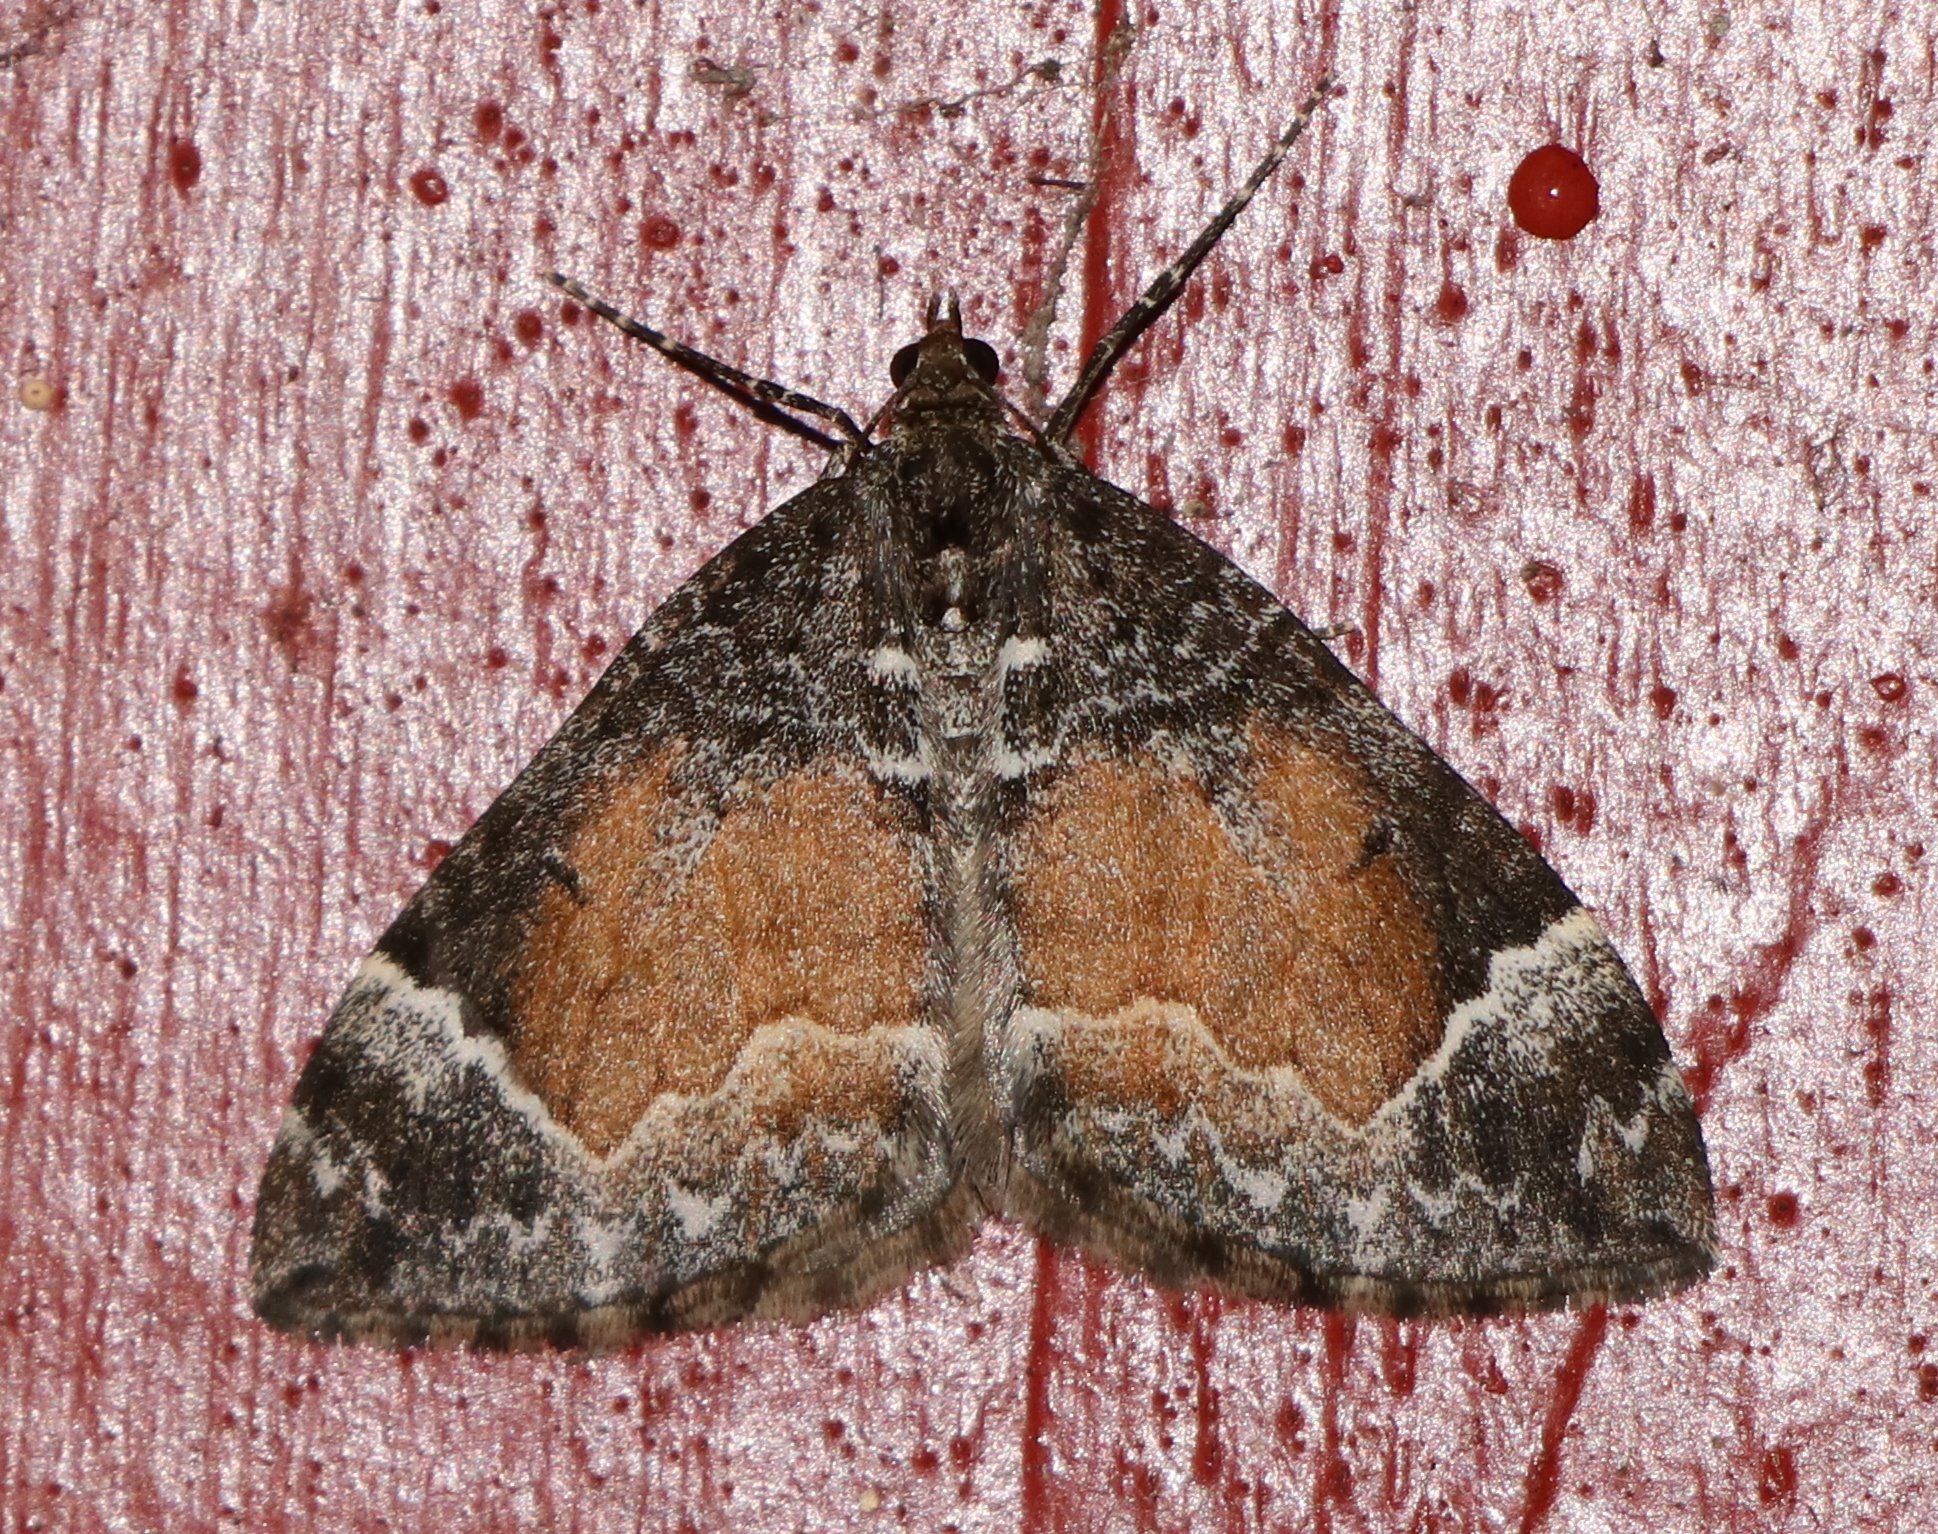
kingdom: Animalia
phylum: Arthropoda
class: Insecta
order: Lepidoptera
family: Geometridae
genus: Dysstroma
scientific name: Dysstroma truncata
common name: Common marbled carpet
